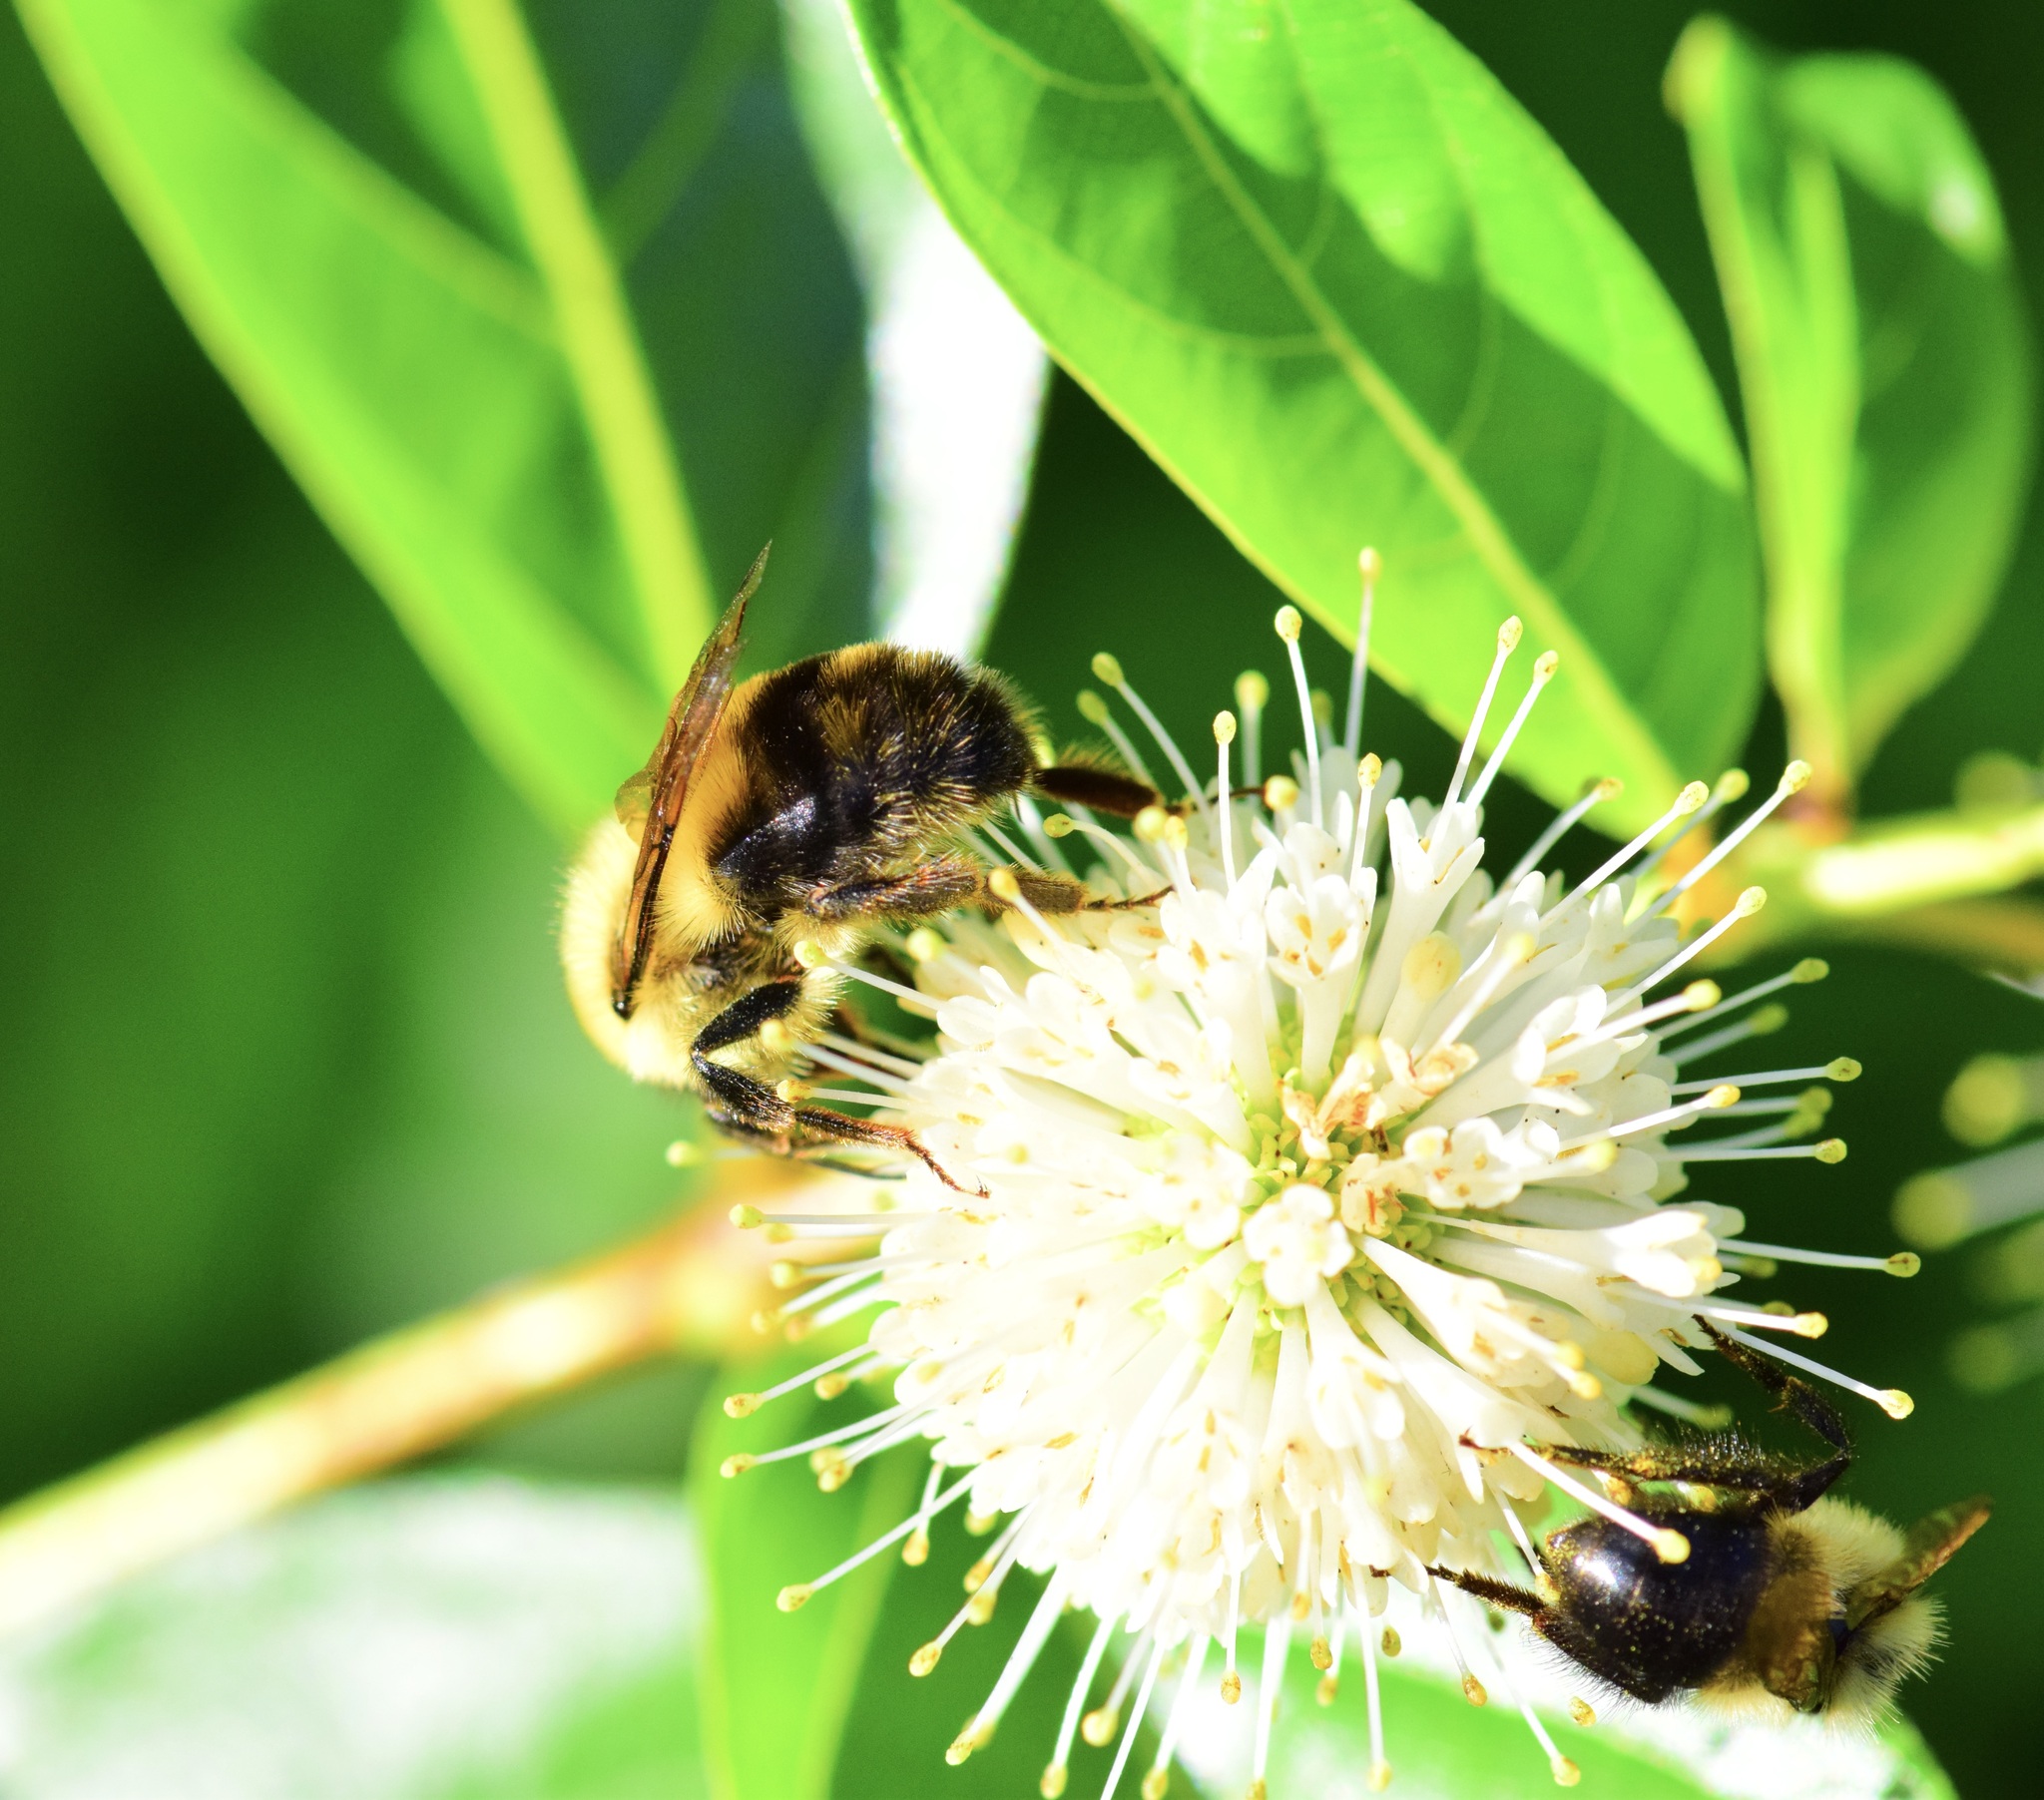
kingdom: Animalia
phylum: Arthropoda
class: Insecta
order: Hymenoptera
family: Apidae
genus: Bombus
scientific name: Bombus bimaculatus
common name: Two-spotted bumble bee
